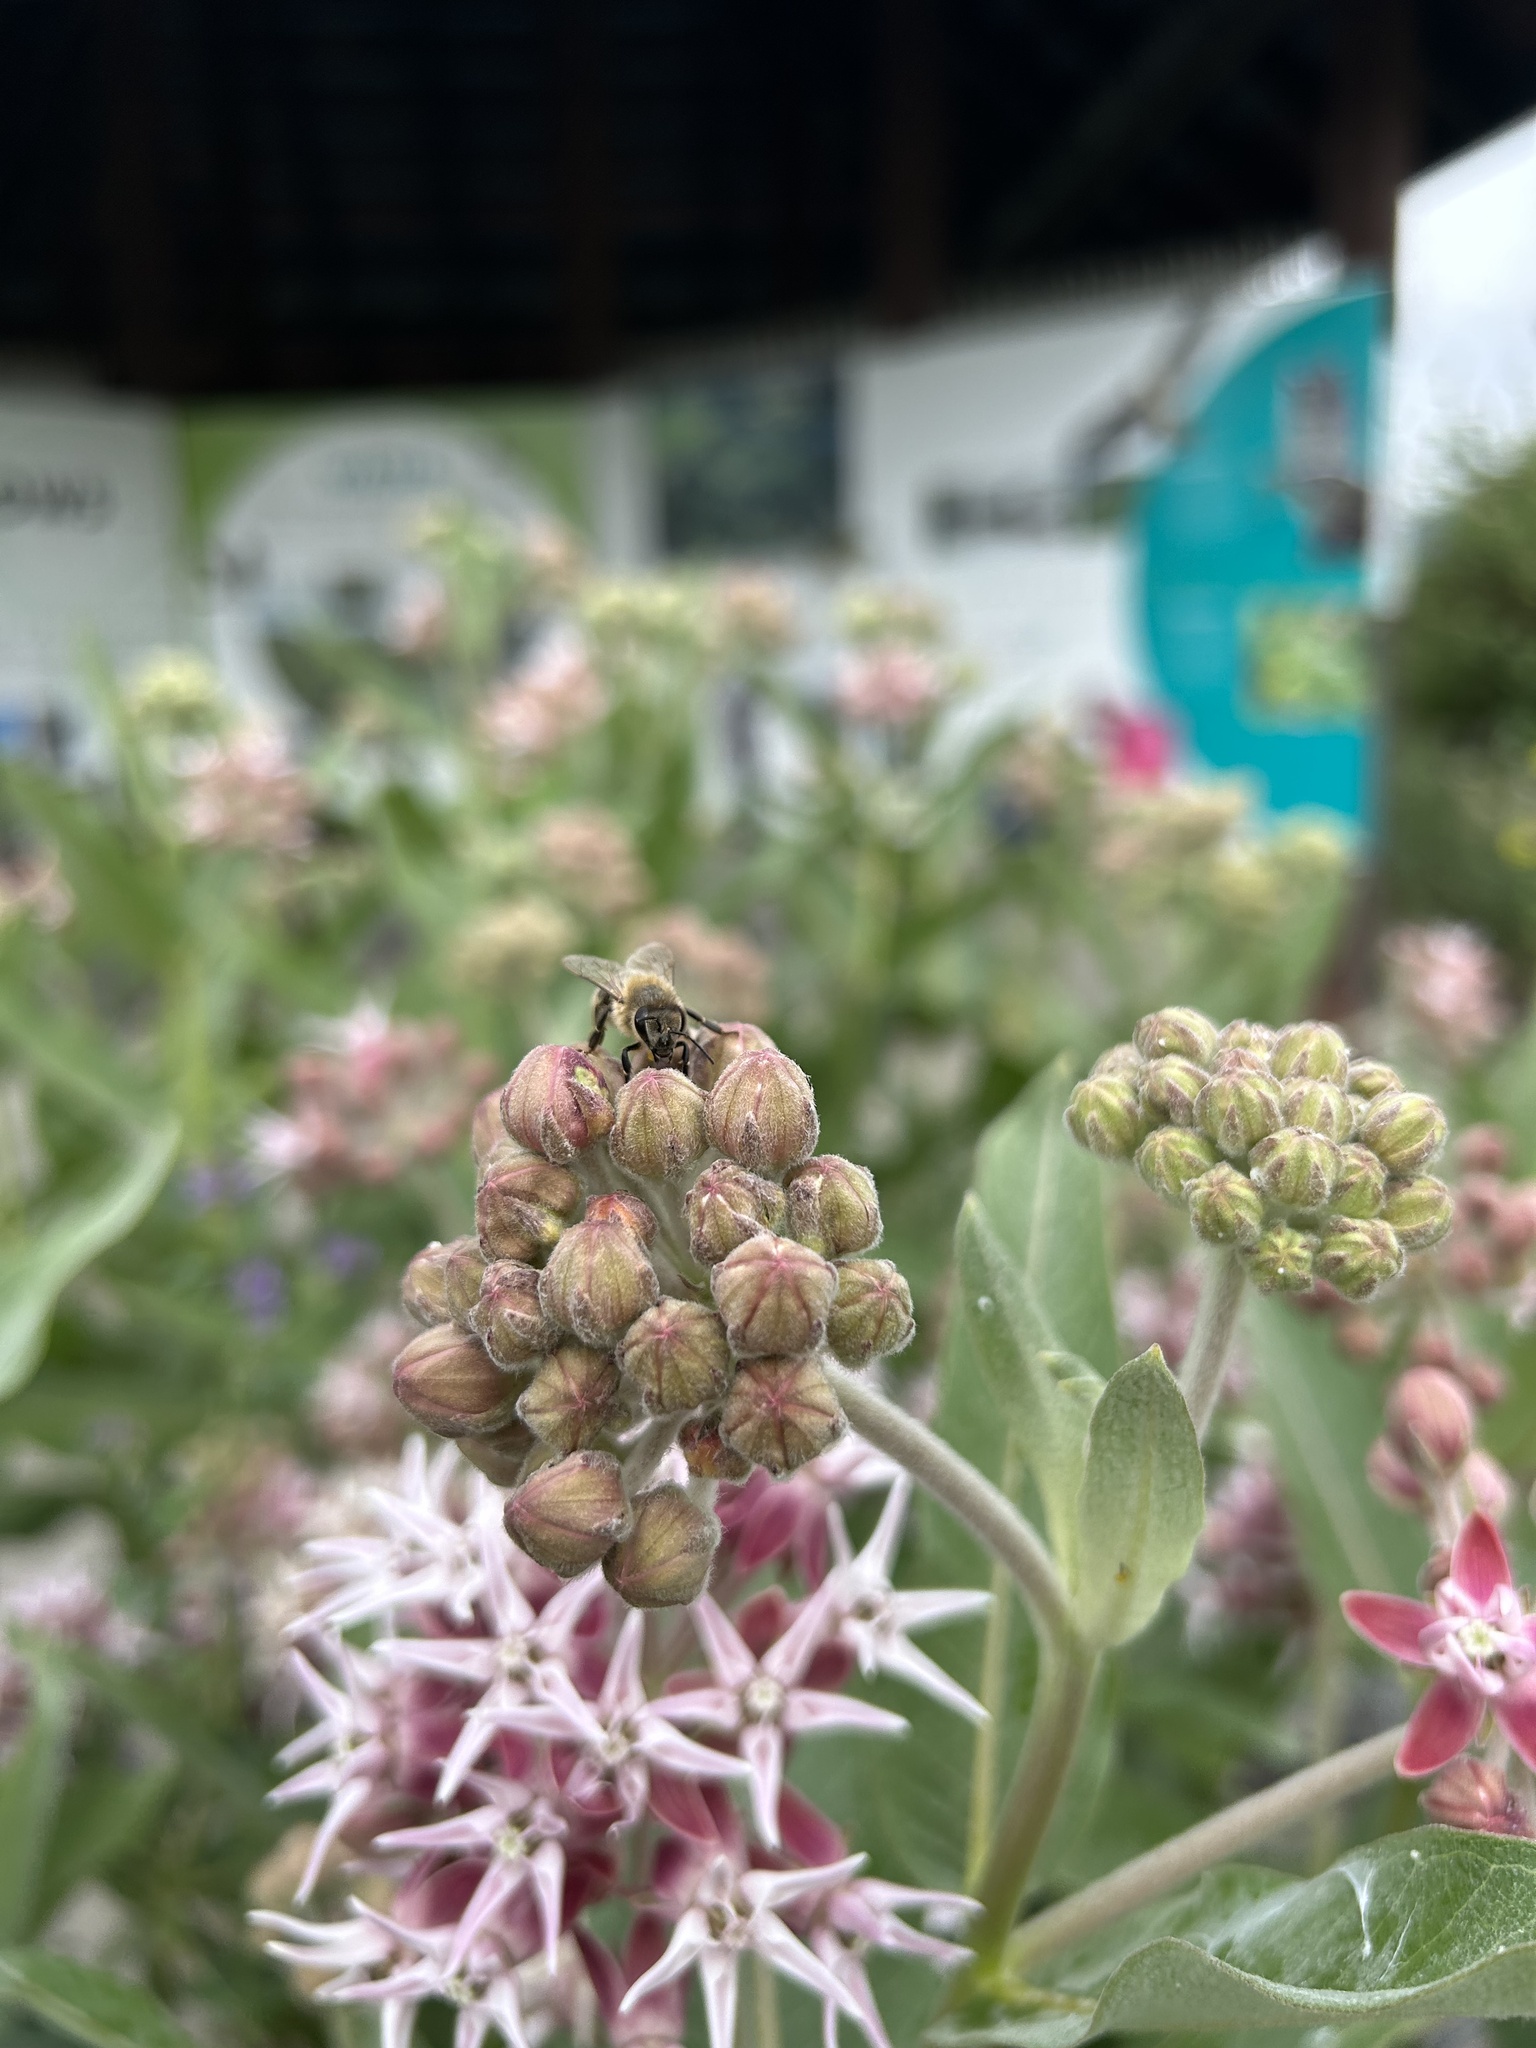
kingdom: Animalia
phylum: Arthropoda
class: Insecta
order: Hymenoptera
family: Apidae
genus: Apis
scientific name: Apis mellifera
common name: Honey bee
